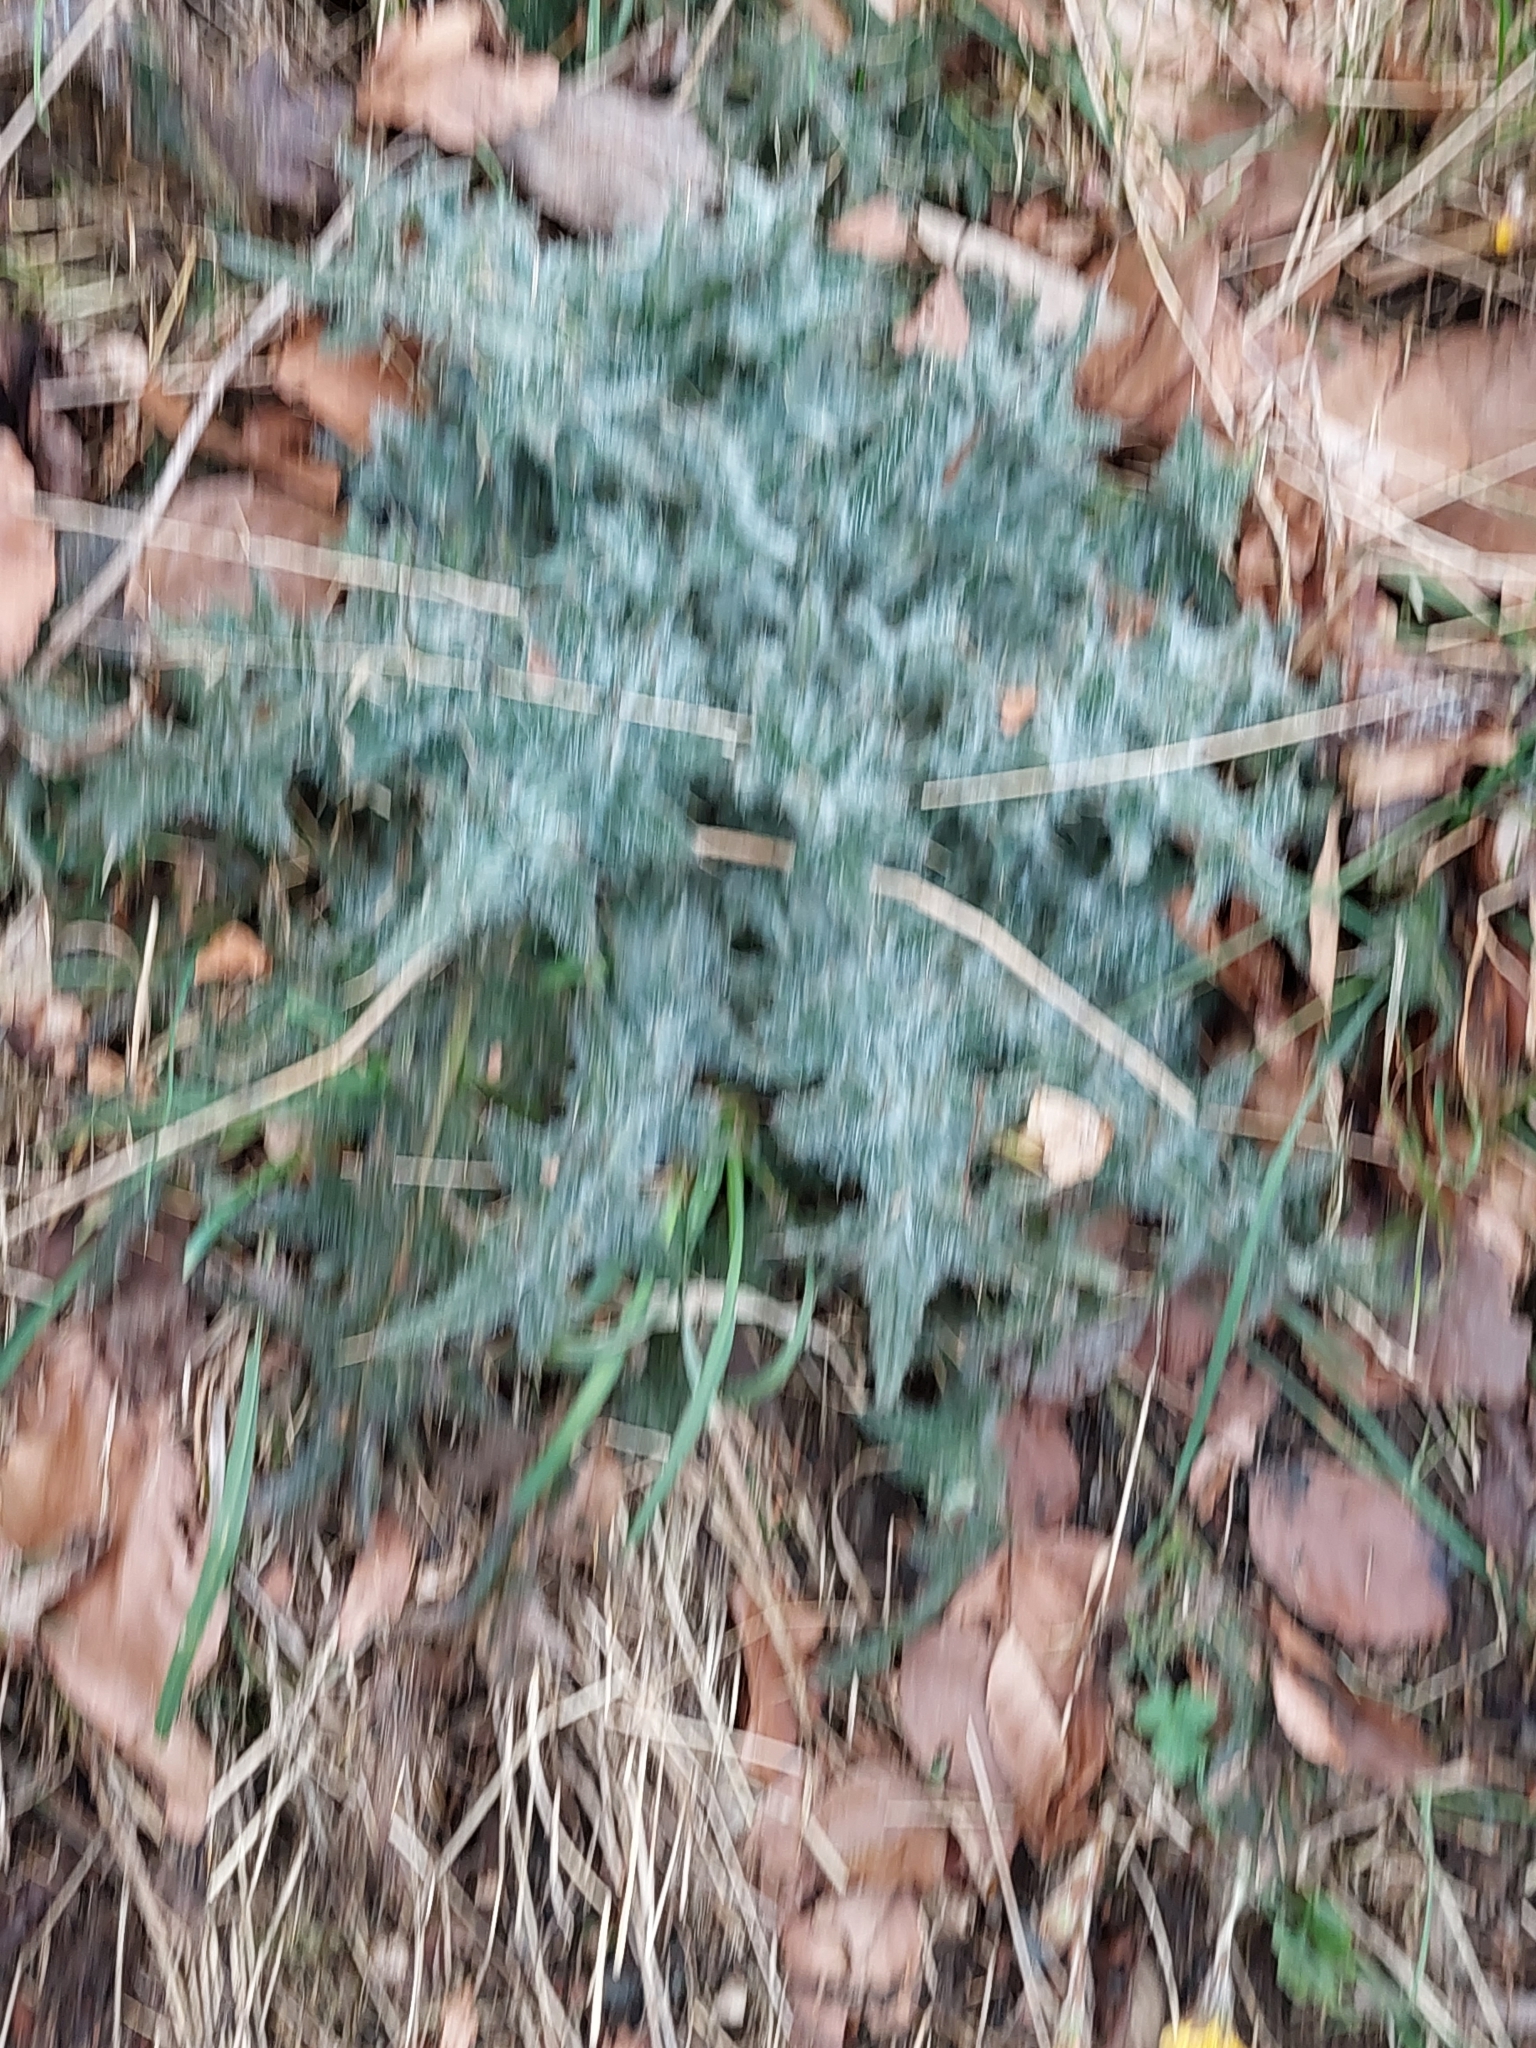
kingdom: Plantae
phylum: Tracheophyta
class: Magnoliopsida
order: Asterales
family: Asteraceae
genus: Cirsium
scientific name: Cirsium vulgare
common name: Bull thistle
